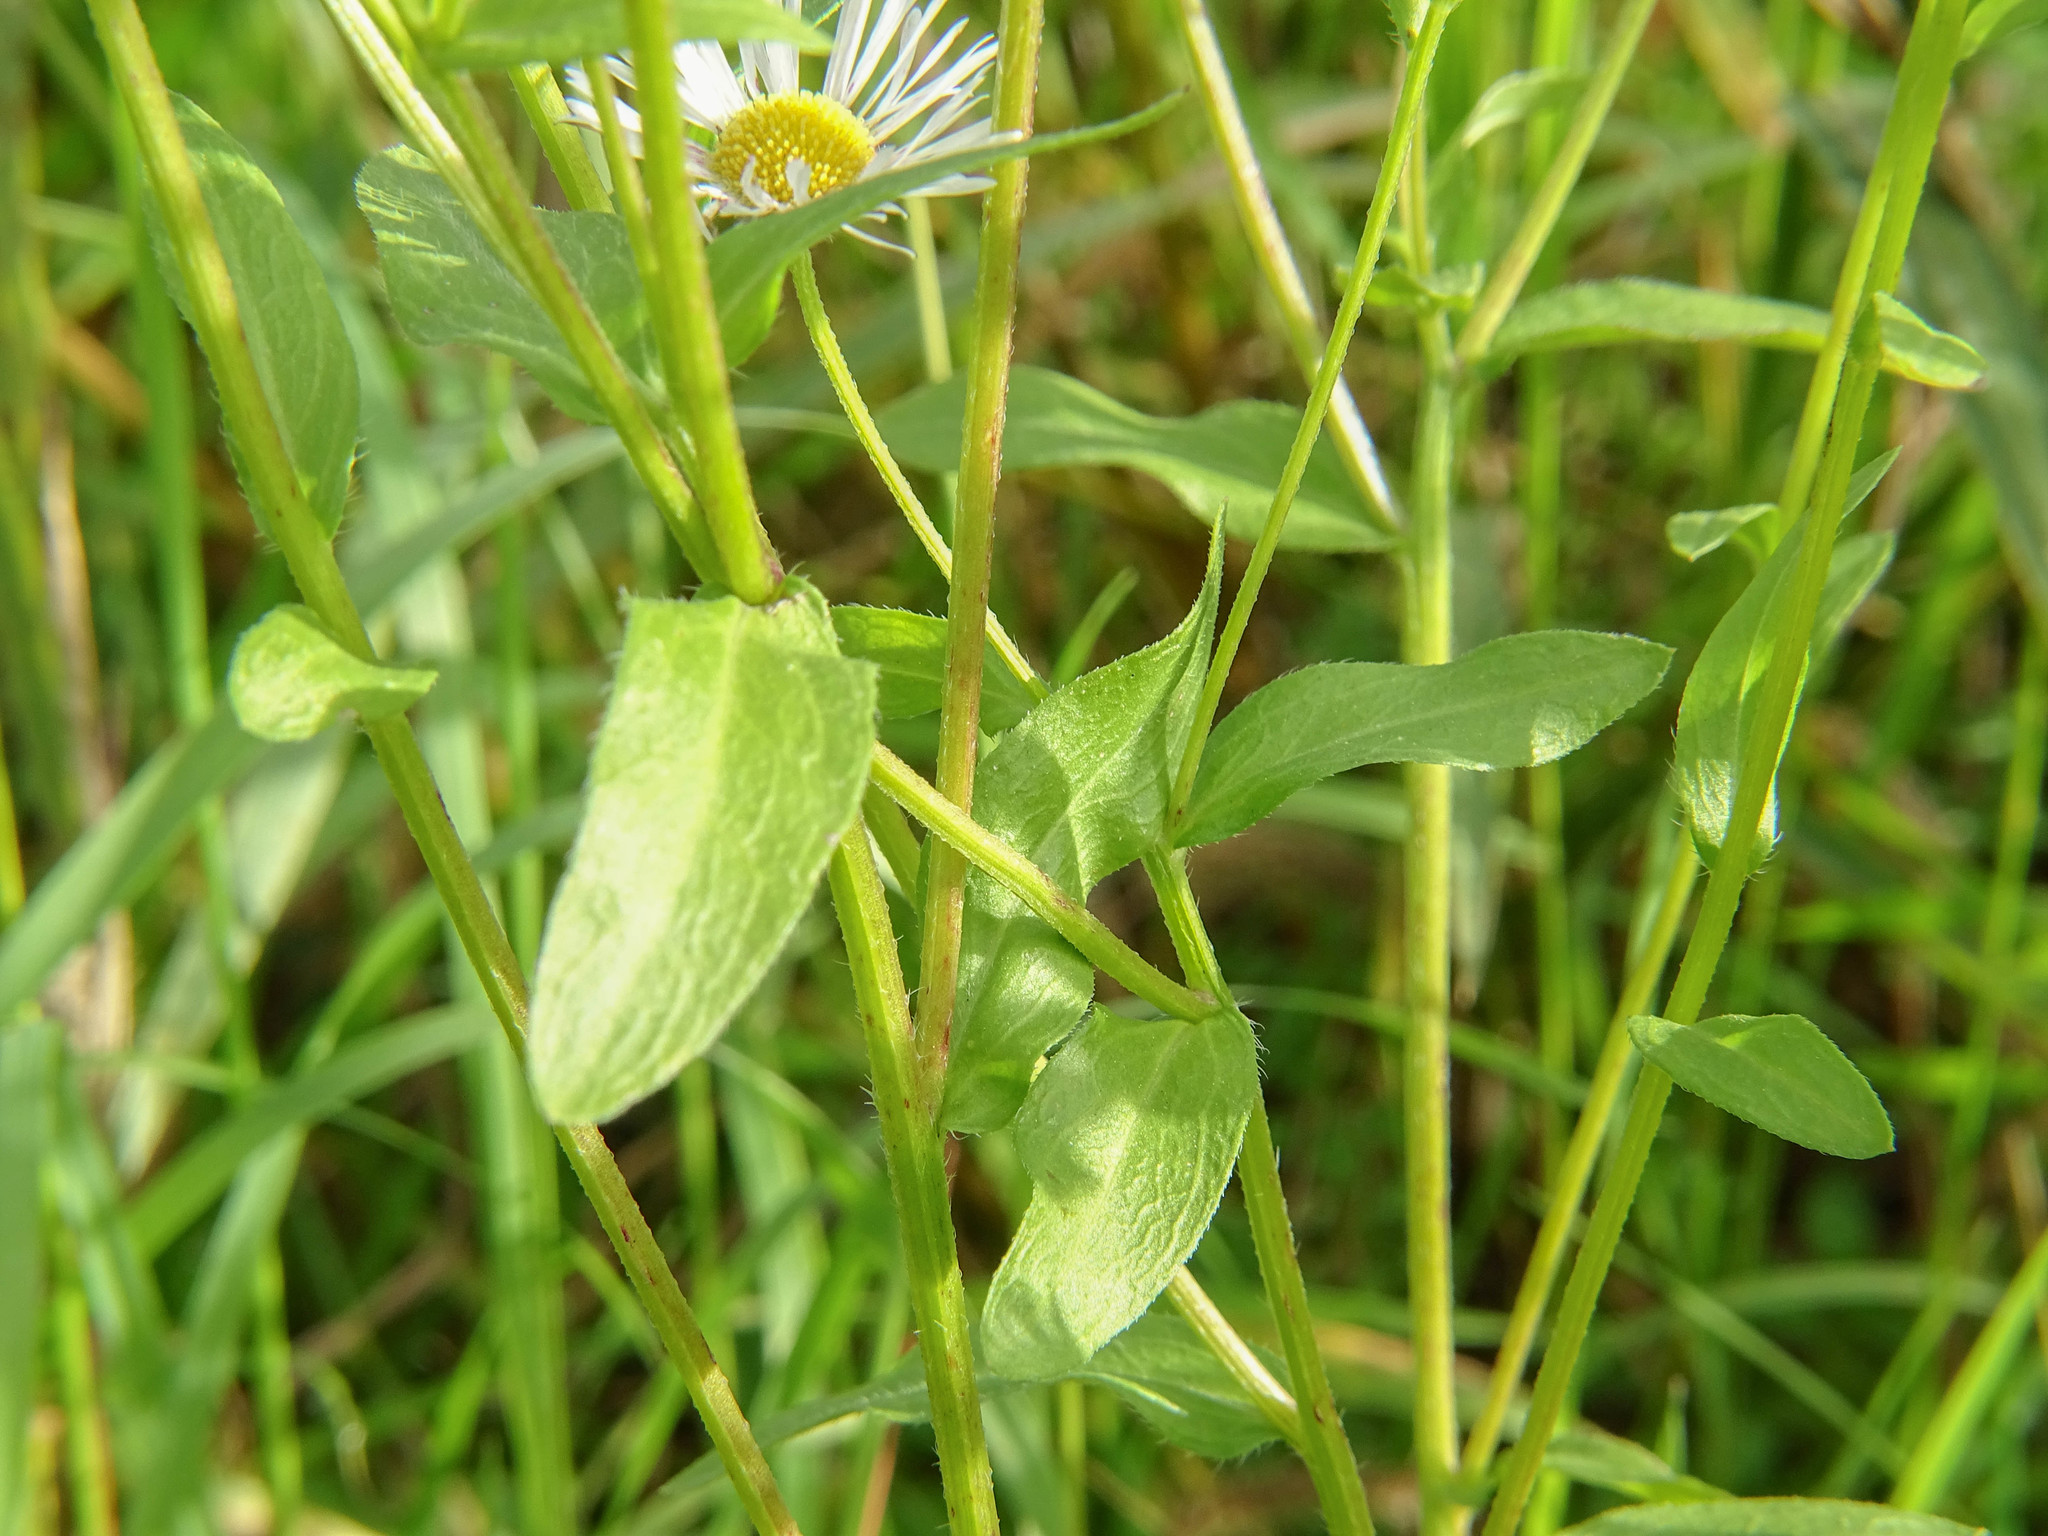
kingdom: Plantae
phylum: Tracheophyta
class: Magnoliopsida
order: Asterales
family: Asteraceae
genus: Erigeron
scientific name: Erigeron annuus
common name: Tall fleabane
